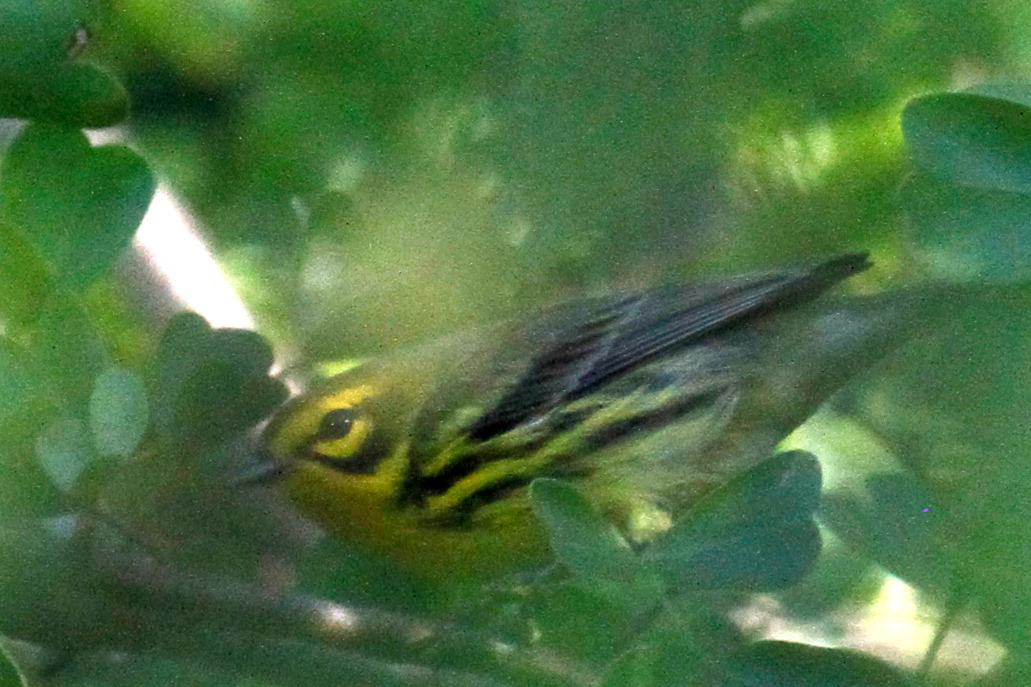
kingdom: Animalia
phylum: Chordata
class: Aves
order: Passeriformes
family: Parulidae
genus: Setophaga
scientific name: Setophaga discolor
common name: Prairie warbler
